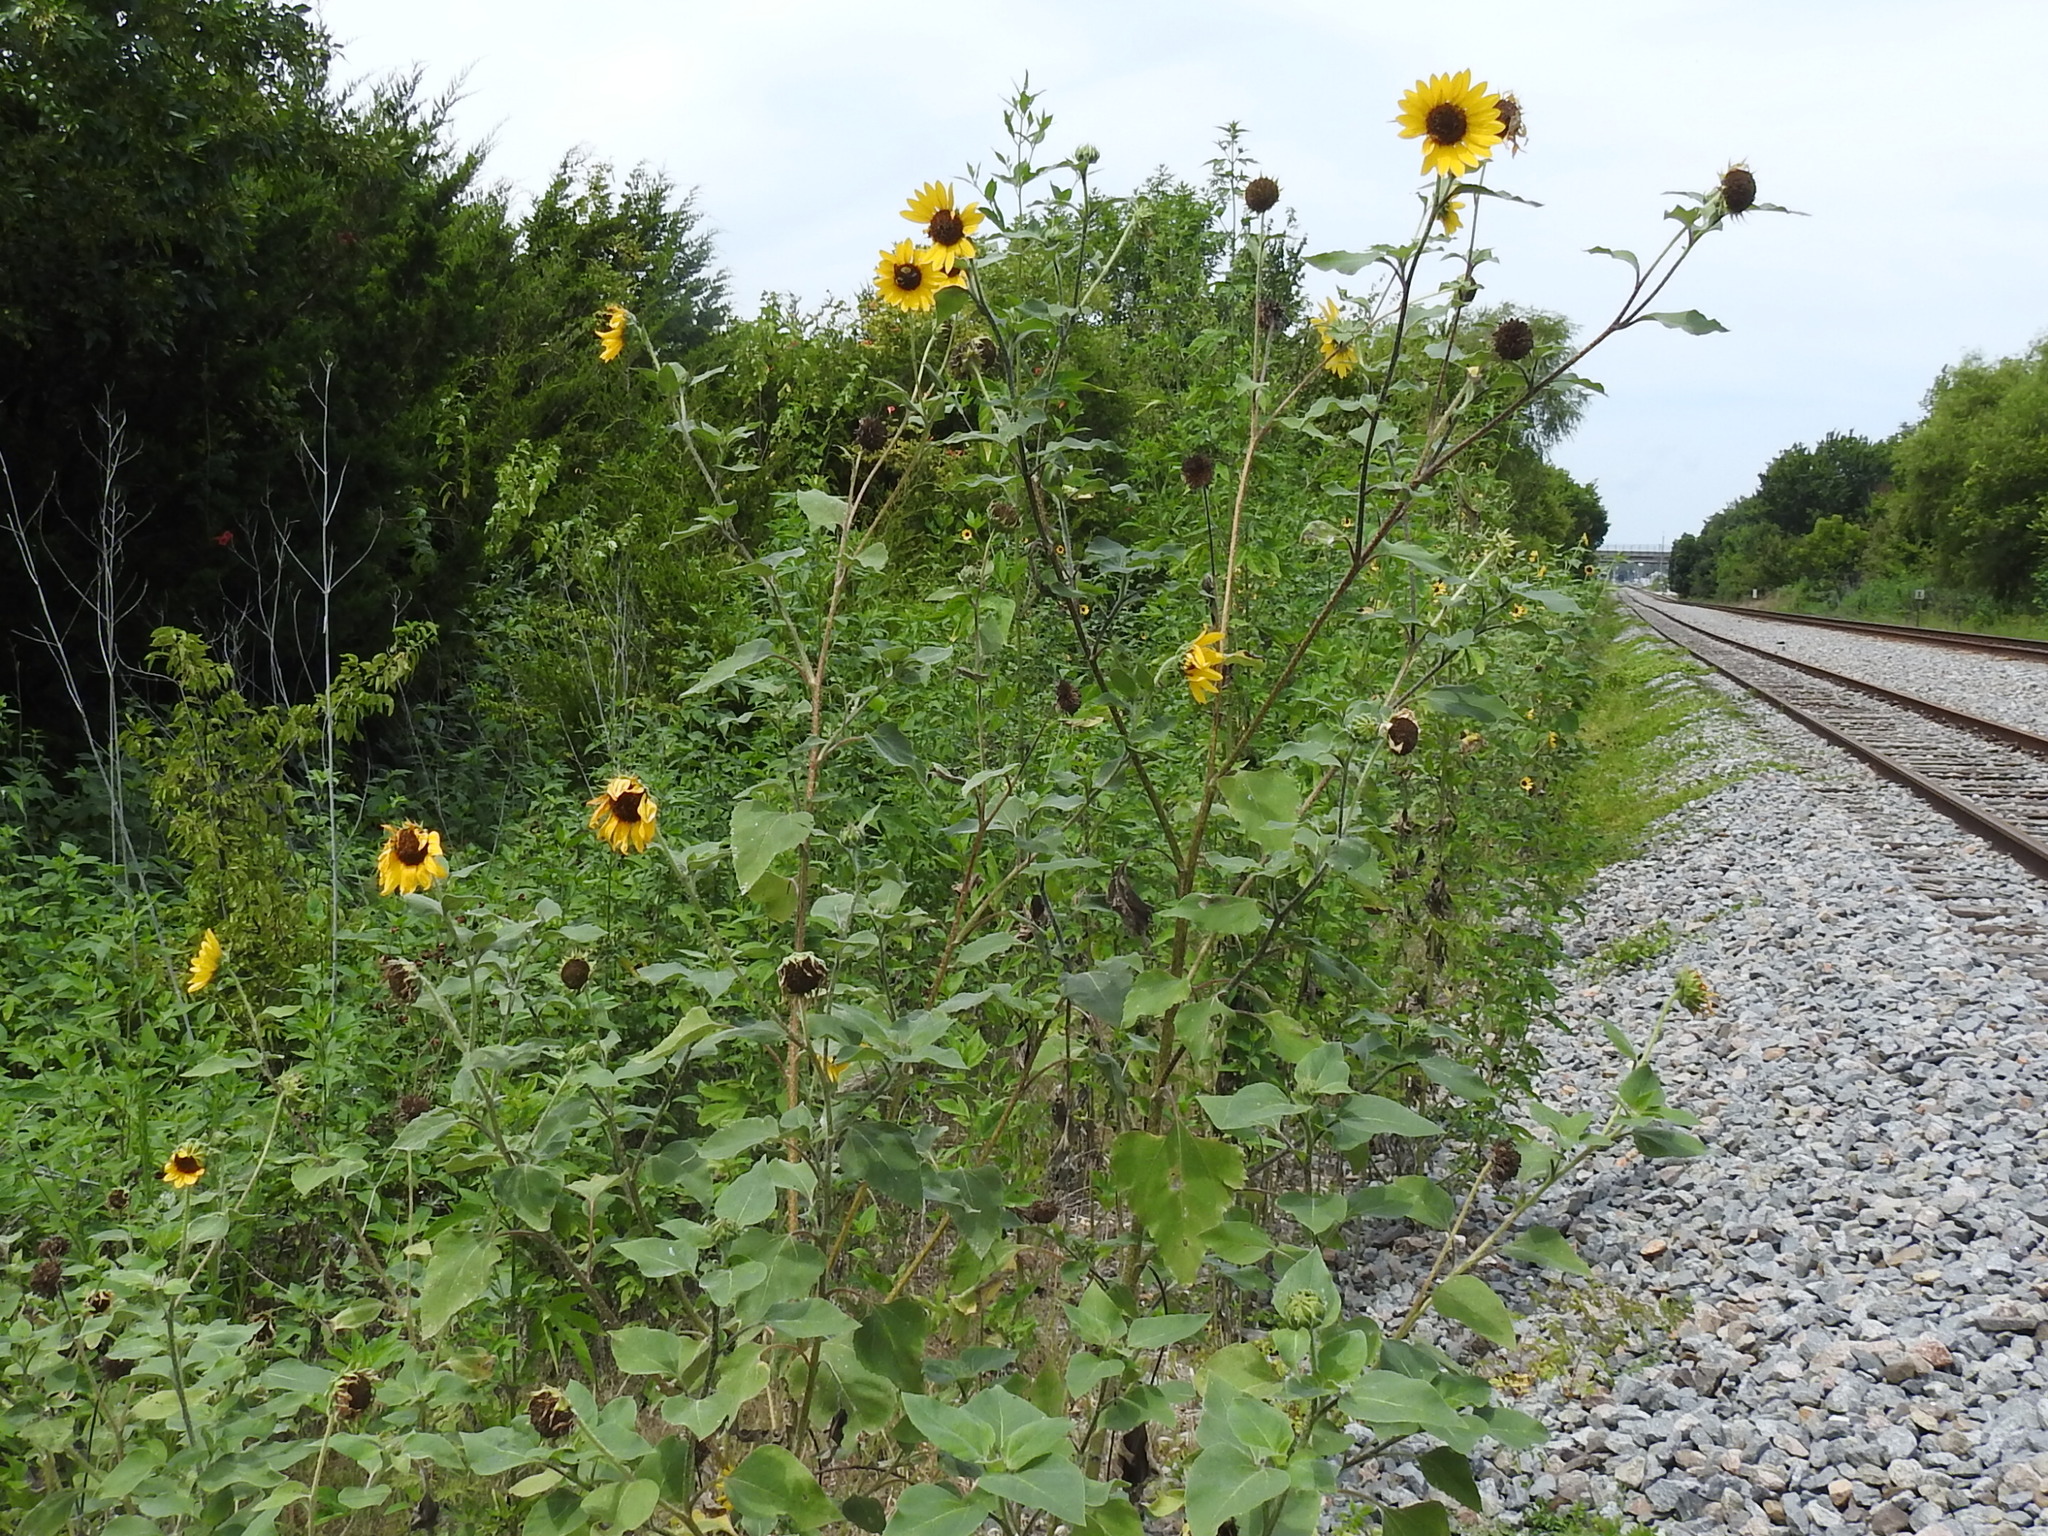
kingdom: Plantae
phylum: Tracheophyta
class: Magnoliopsida
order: Asterales
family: Asteraceae
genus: Helianthus
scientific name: Helianthus annuus
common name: Sunflower
